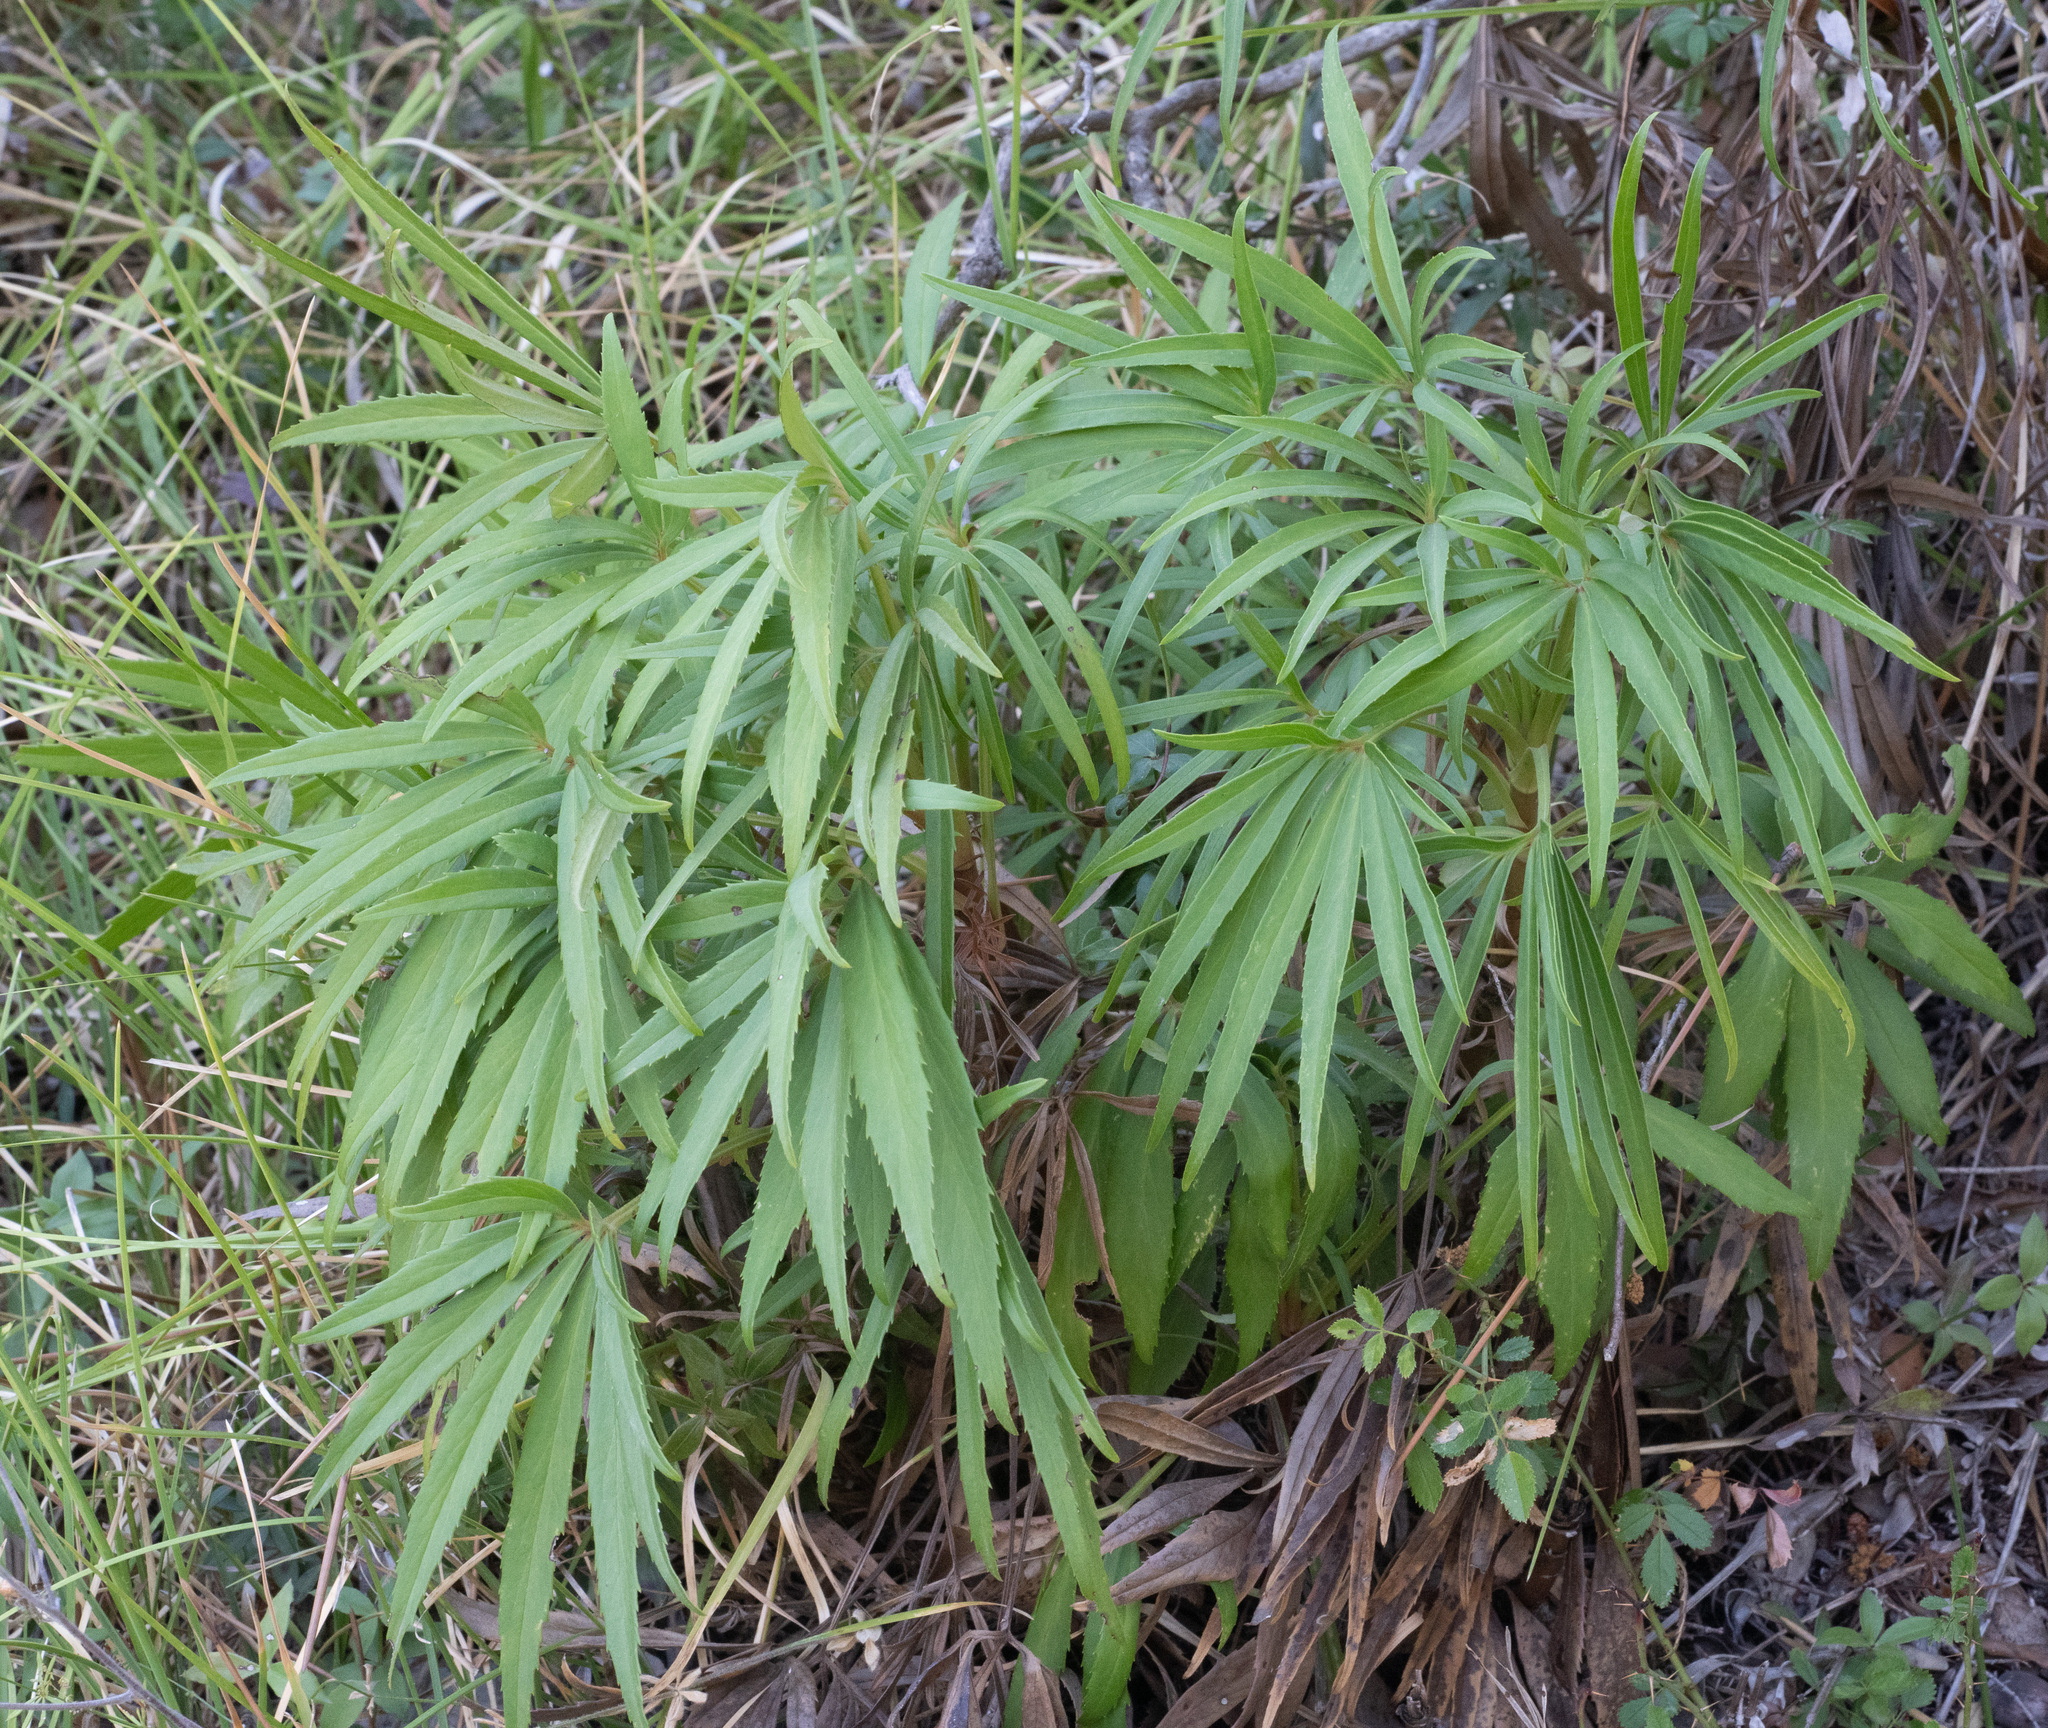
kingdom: Plantae
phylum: Tracheophyta
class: Magnoliopsida
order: Ranunculales
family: Ranunculaceae
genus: Helleborus
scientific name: Helleborus foetidus
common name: Stinking hellebore
